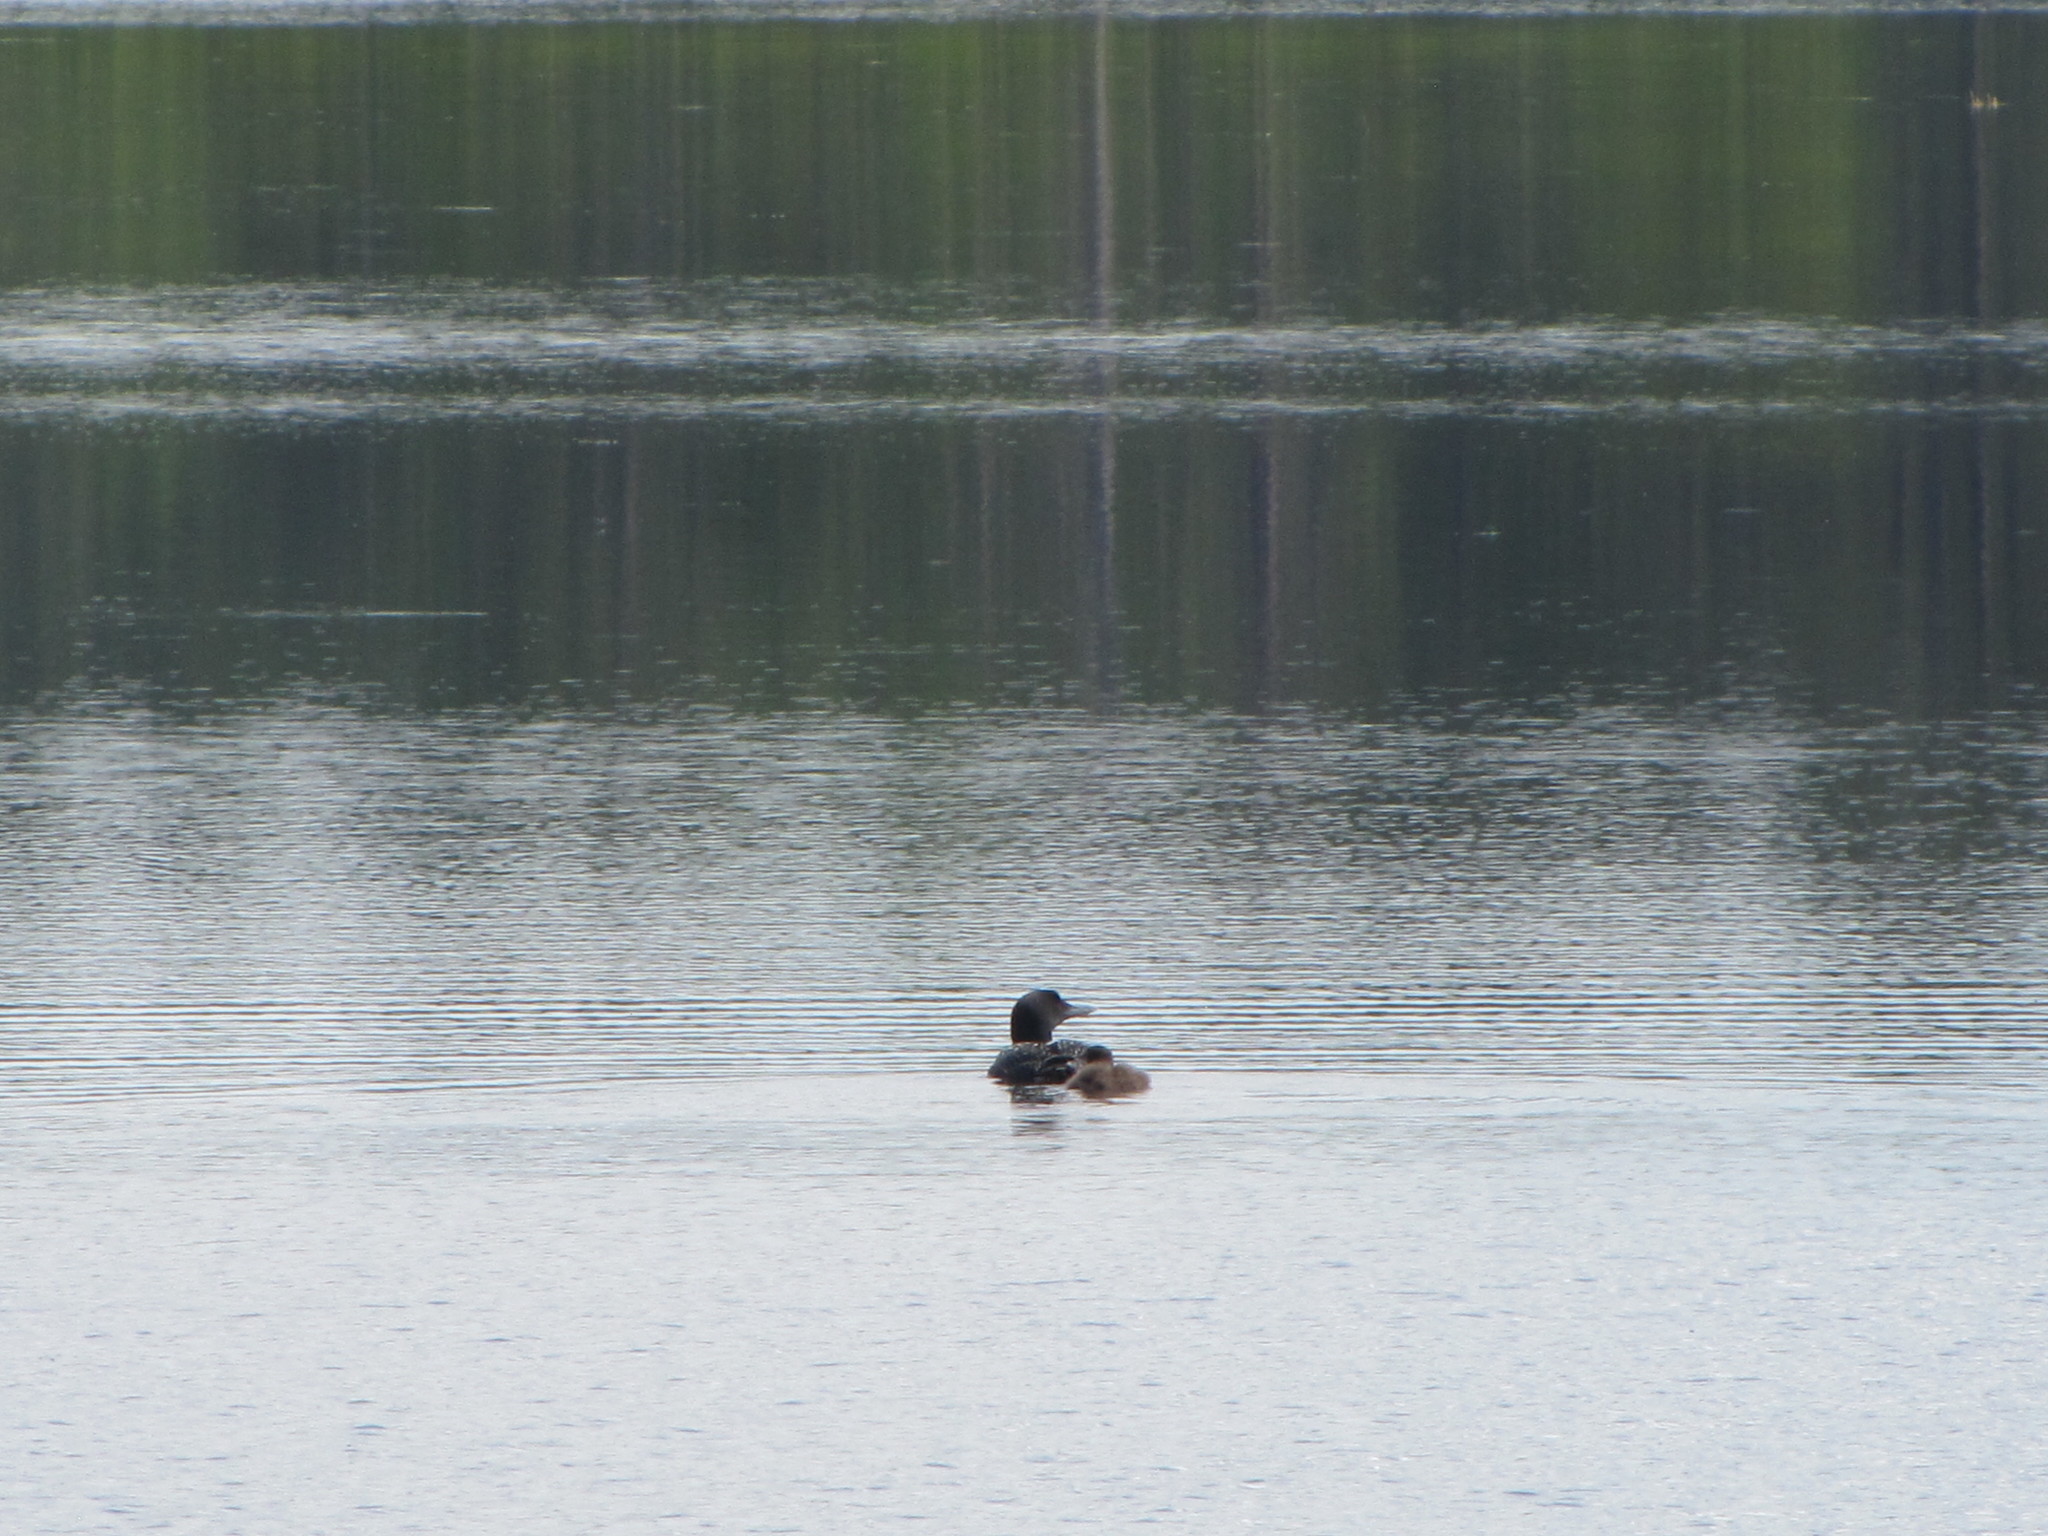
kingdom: Animalia
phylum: Chordata
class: Aves
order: Gaviiformes
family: Gaviidae
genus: Gavia
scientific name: Gavia immer
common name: Common loon
